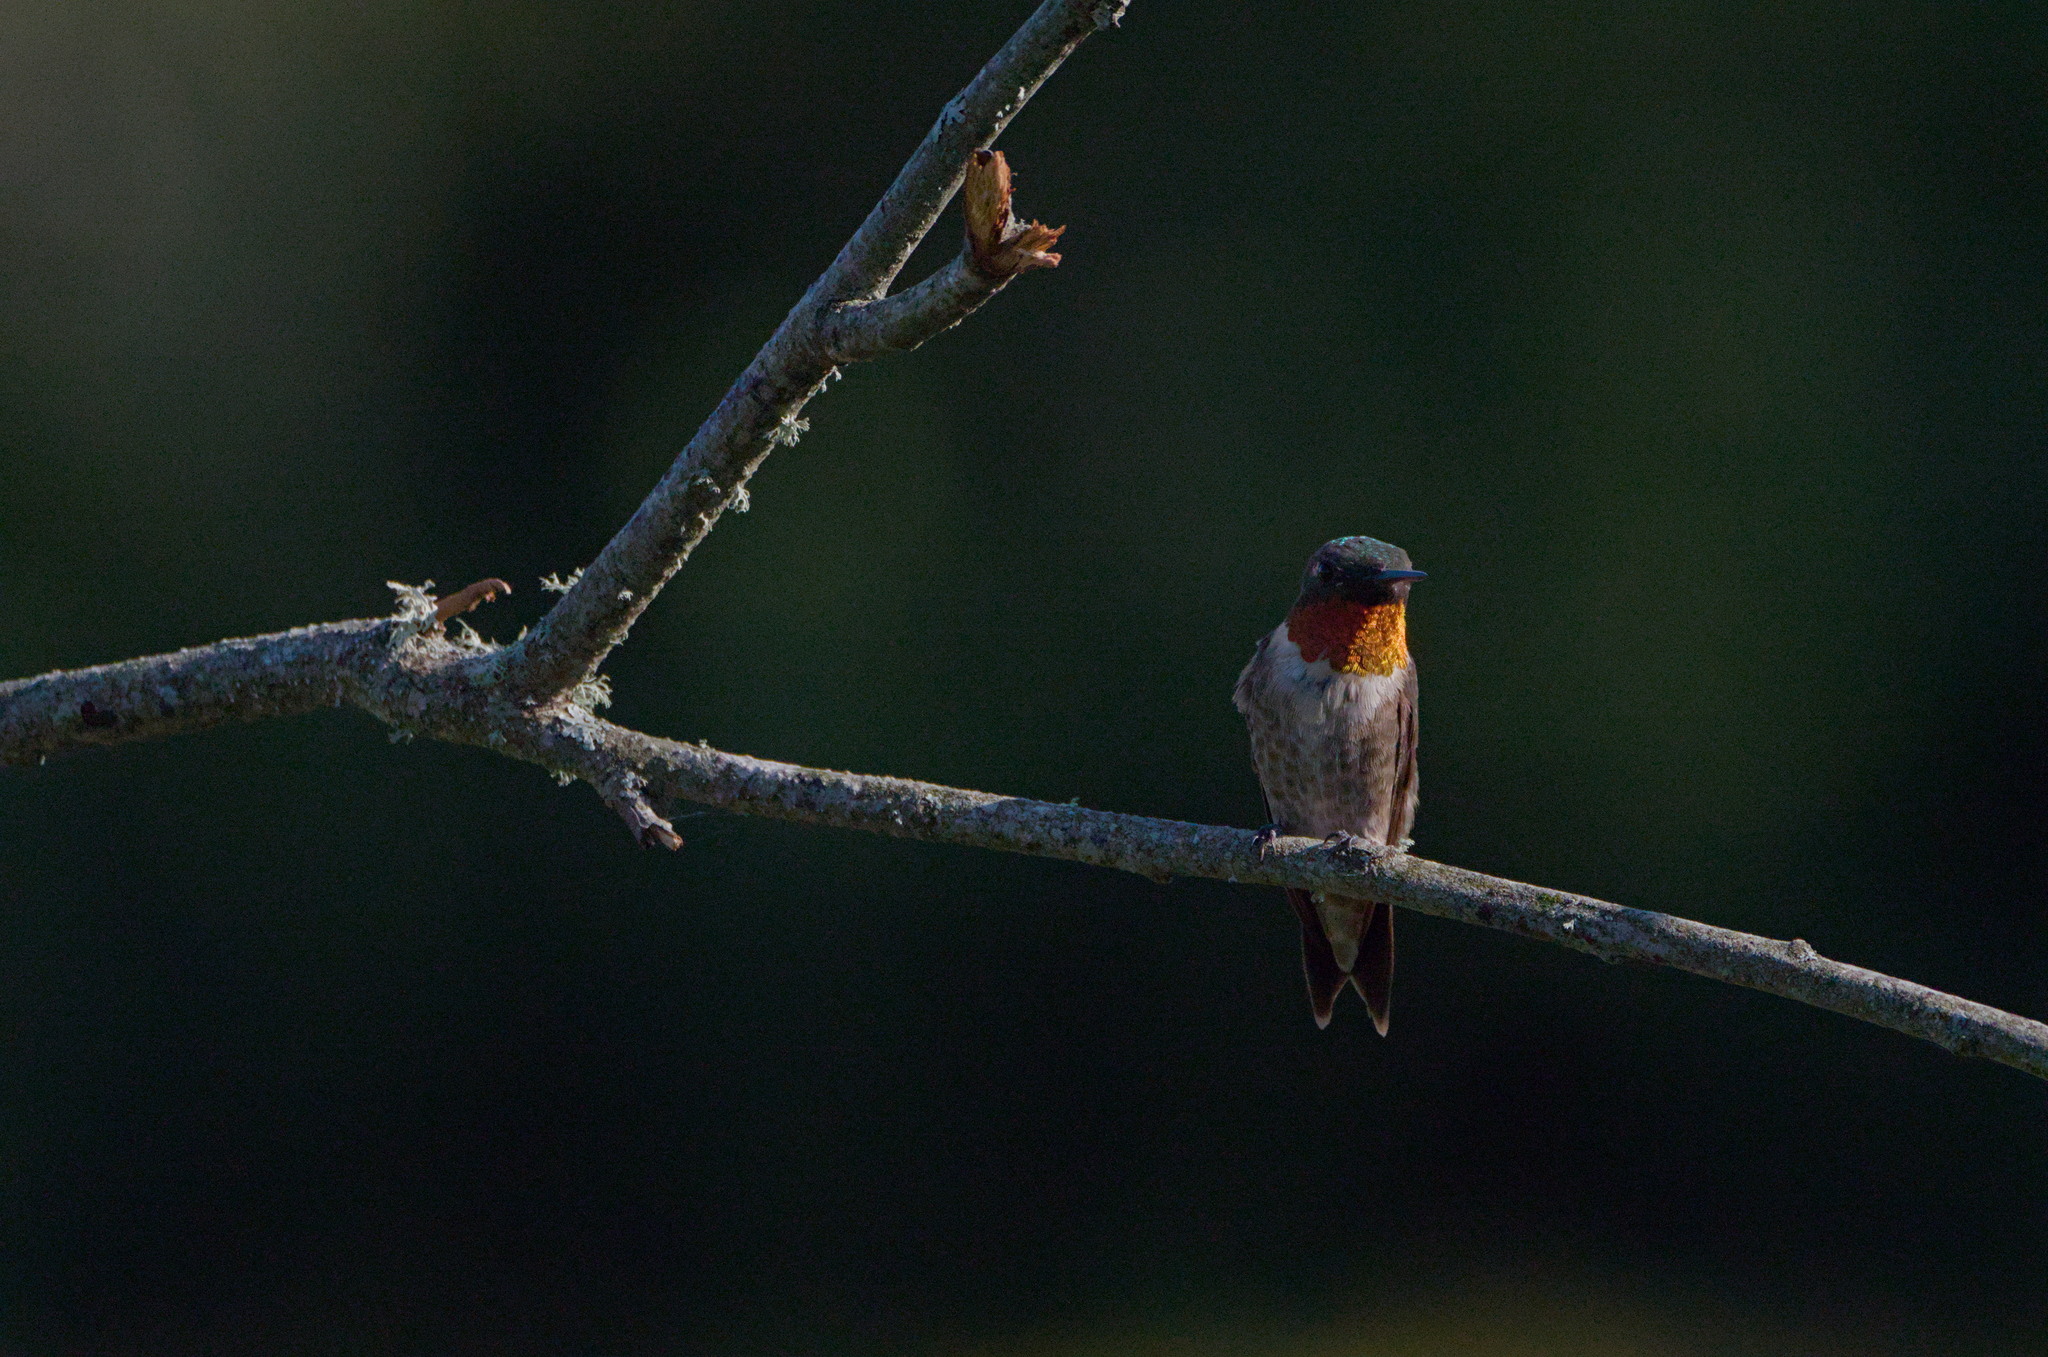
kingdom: Animalia
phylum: Chordata
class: Aves
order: Apodiformes
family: Trochilidae
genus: Archilochus
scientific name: Archilochus colubris
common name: Ruby-throated hummingbird
